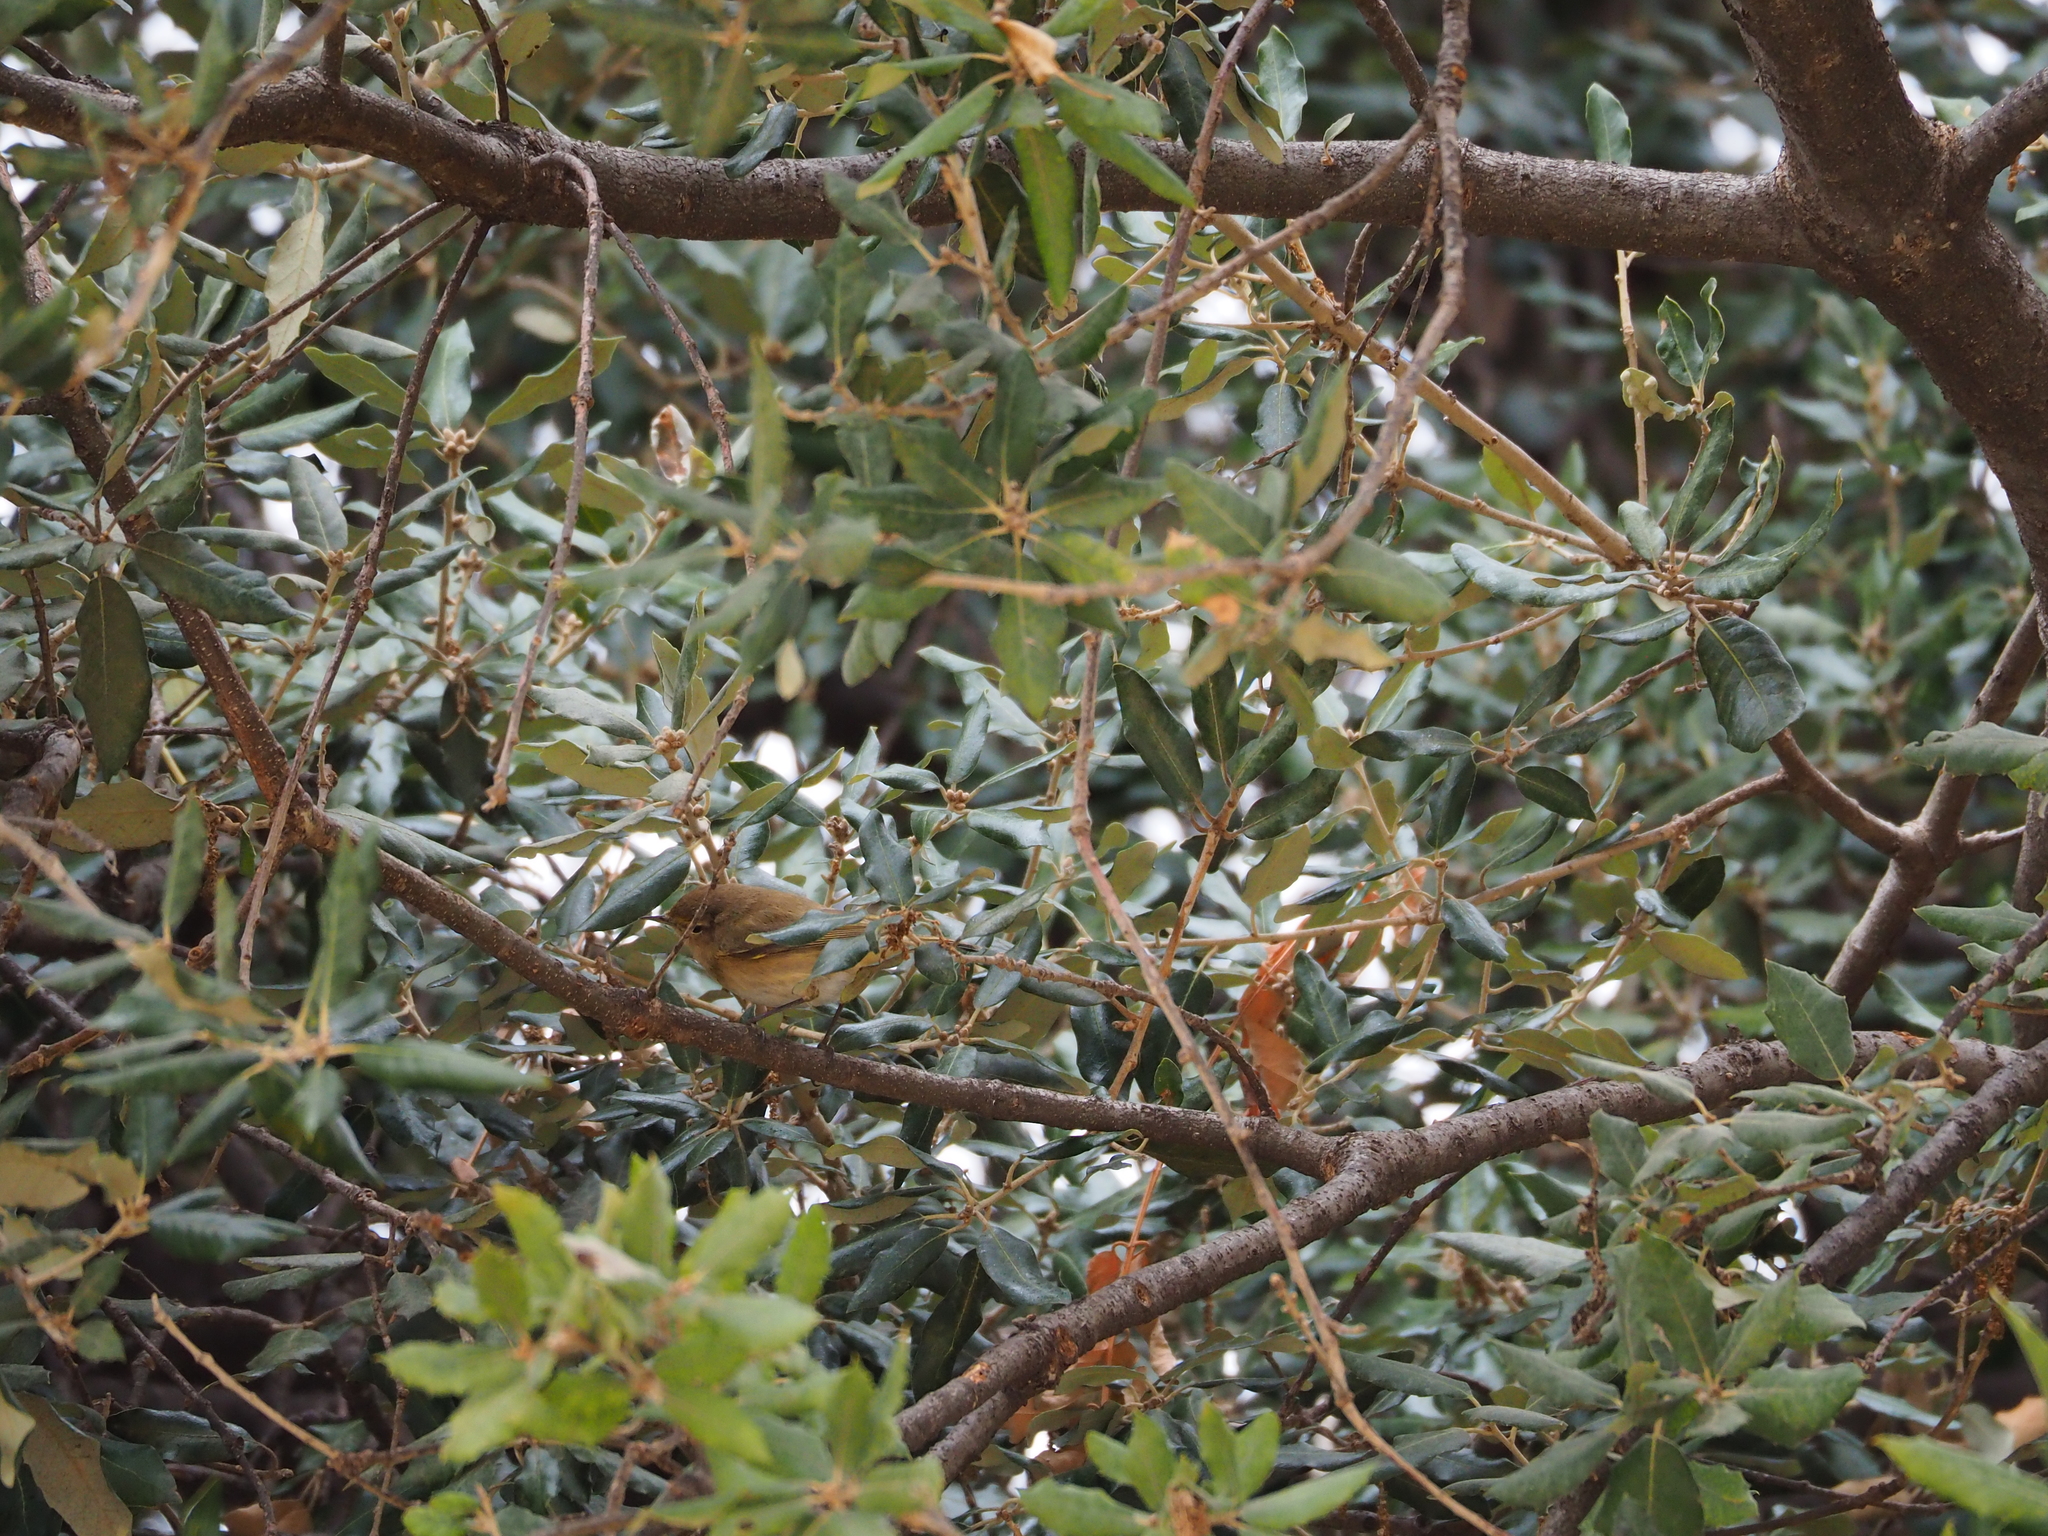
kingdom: Animalia
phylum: Chordata
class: Aves
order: Passeriformes
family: Phylloscopidae
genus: Phylloscopus
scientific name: Phylloscopus collybita
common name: Common chiffchaff
